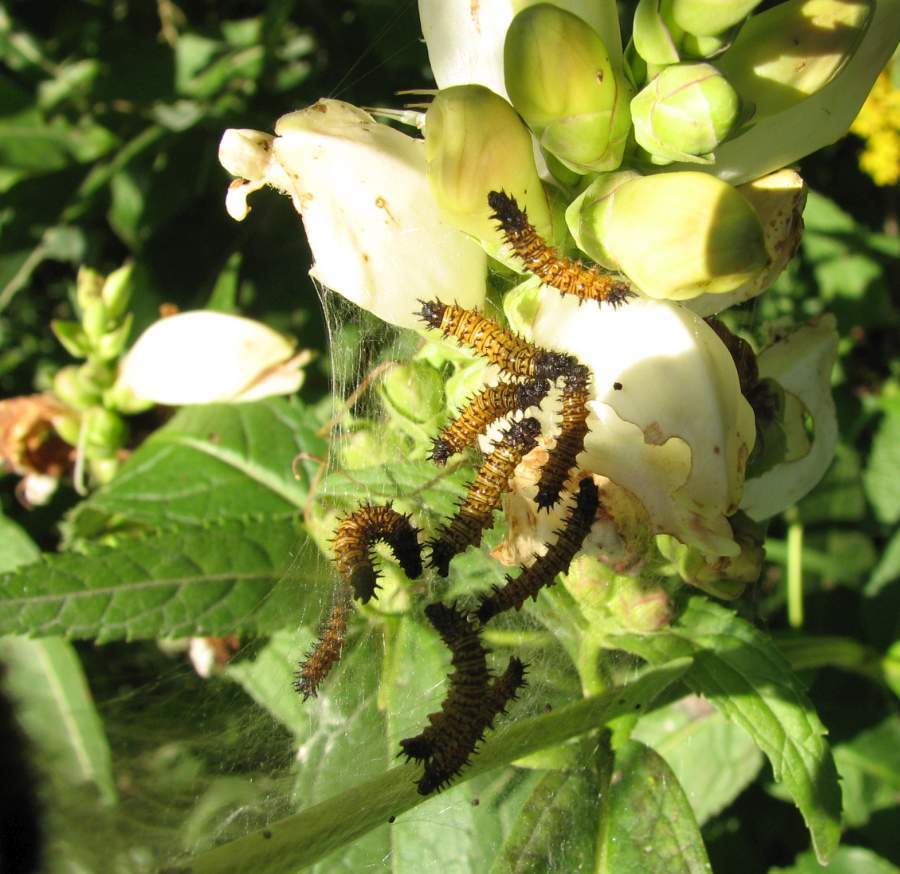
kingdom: Animalia
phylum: Arthropoda
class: Insecta
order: Lepidoptera
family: Nymphalidae
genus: Euphydryas
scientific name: Euphydryas phaeton
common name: Baltimore checkerspot
